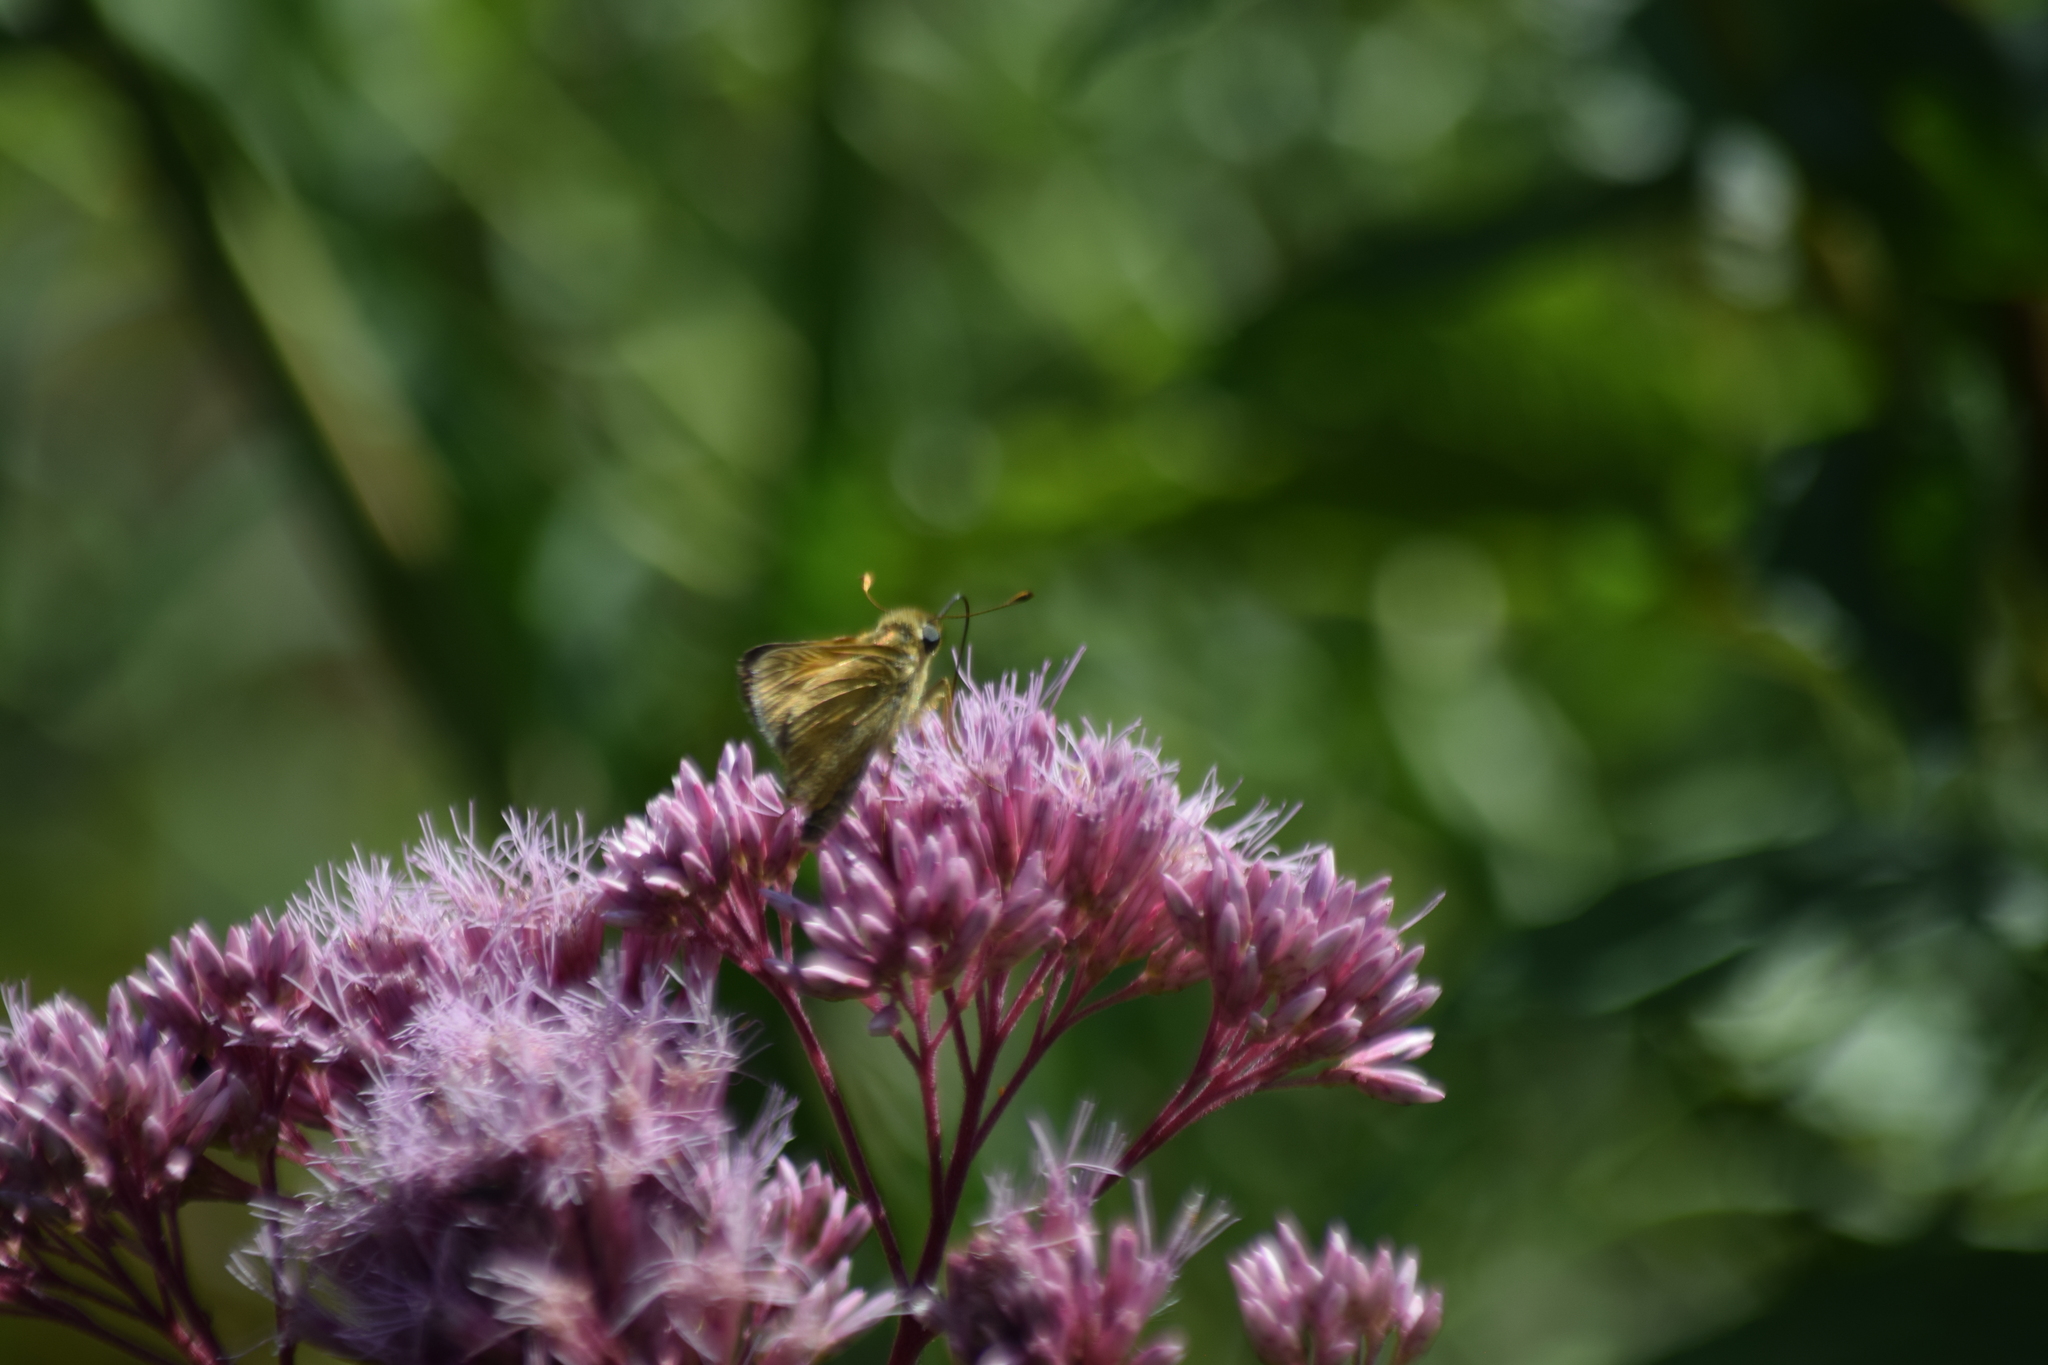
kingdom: Animalia
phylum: Arthropoda
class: Insecta
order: Lepidoptera
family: Hesperiidae
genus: Atalopedes
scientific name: Atalopedes
